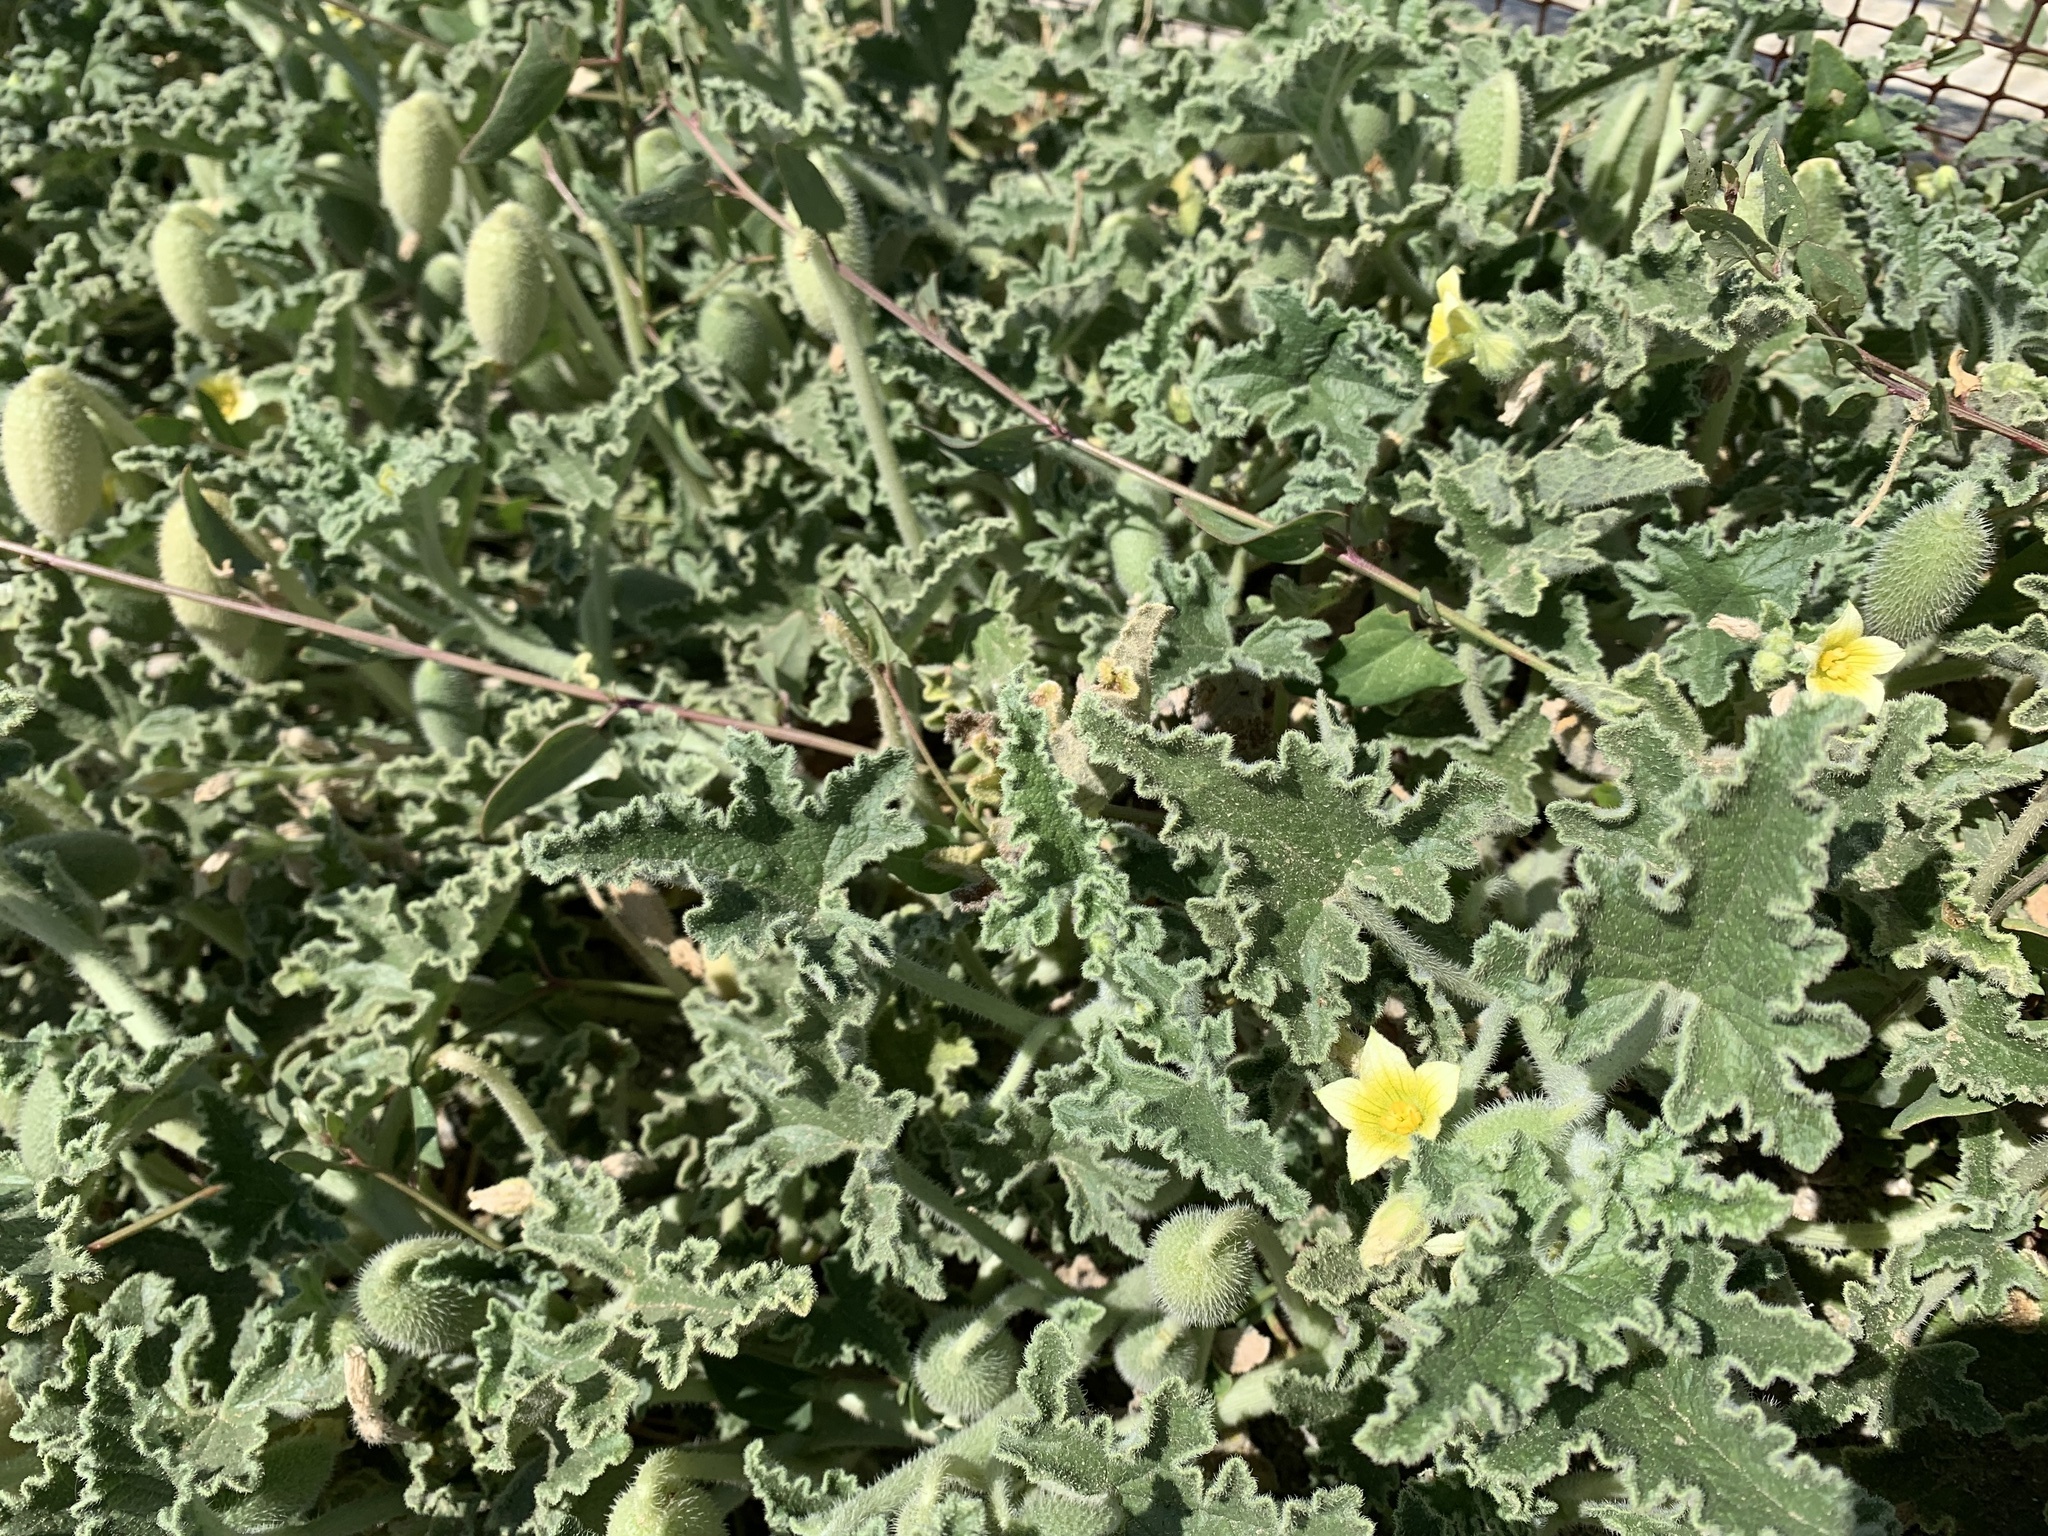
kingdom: Plantae
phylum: Tracheophyta
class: Magnoliopsida
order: Cucurbitales
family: Cucurbitaceae
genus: Ecballium
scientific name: Ecballium elaterium
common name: Squirting cucumber
